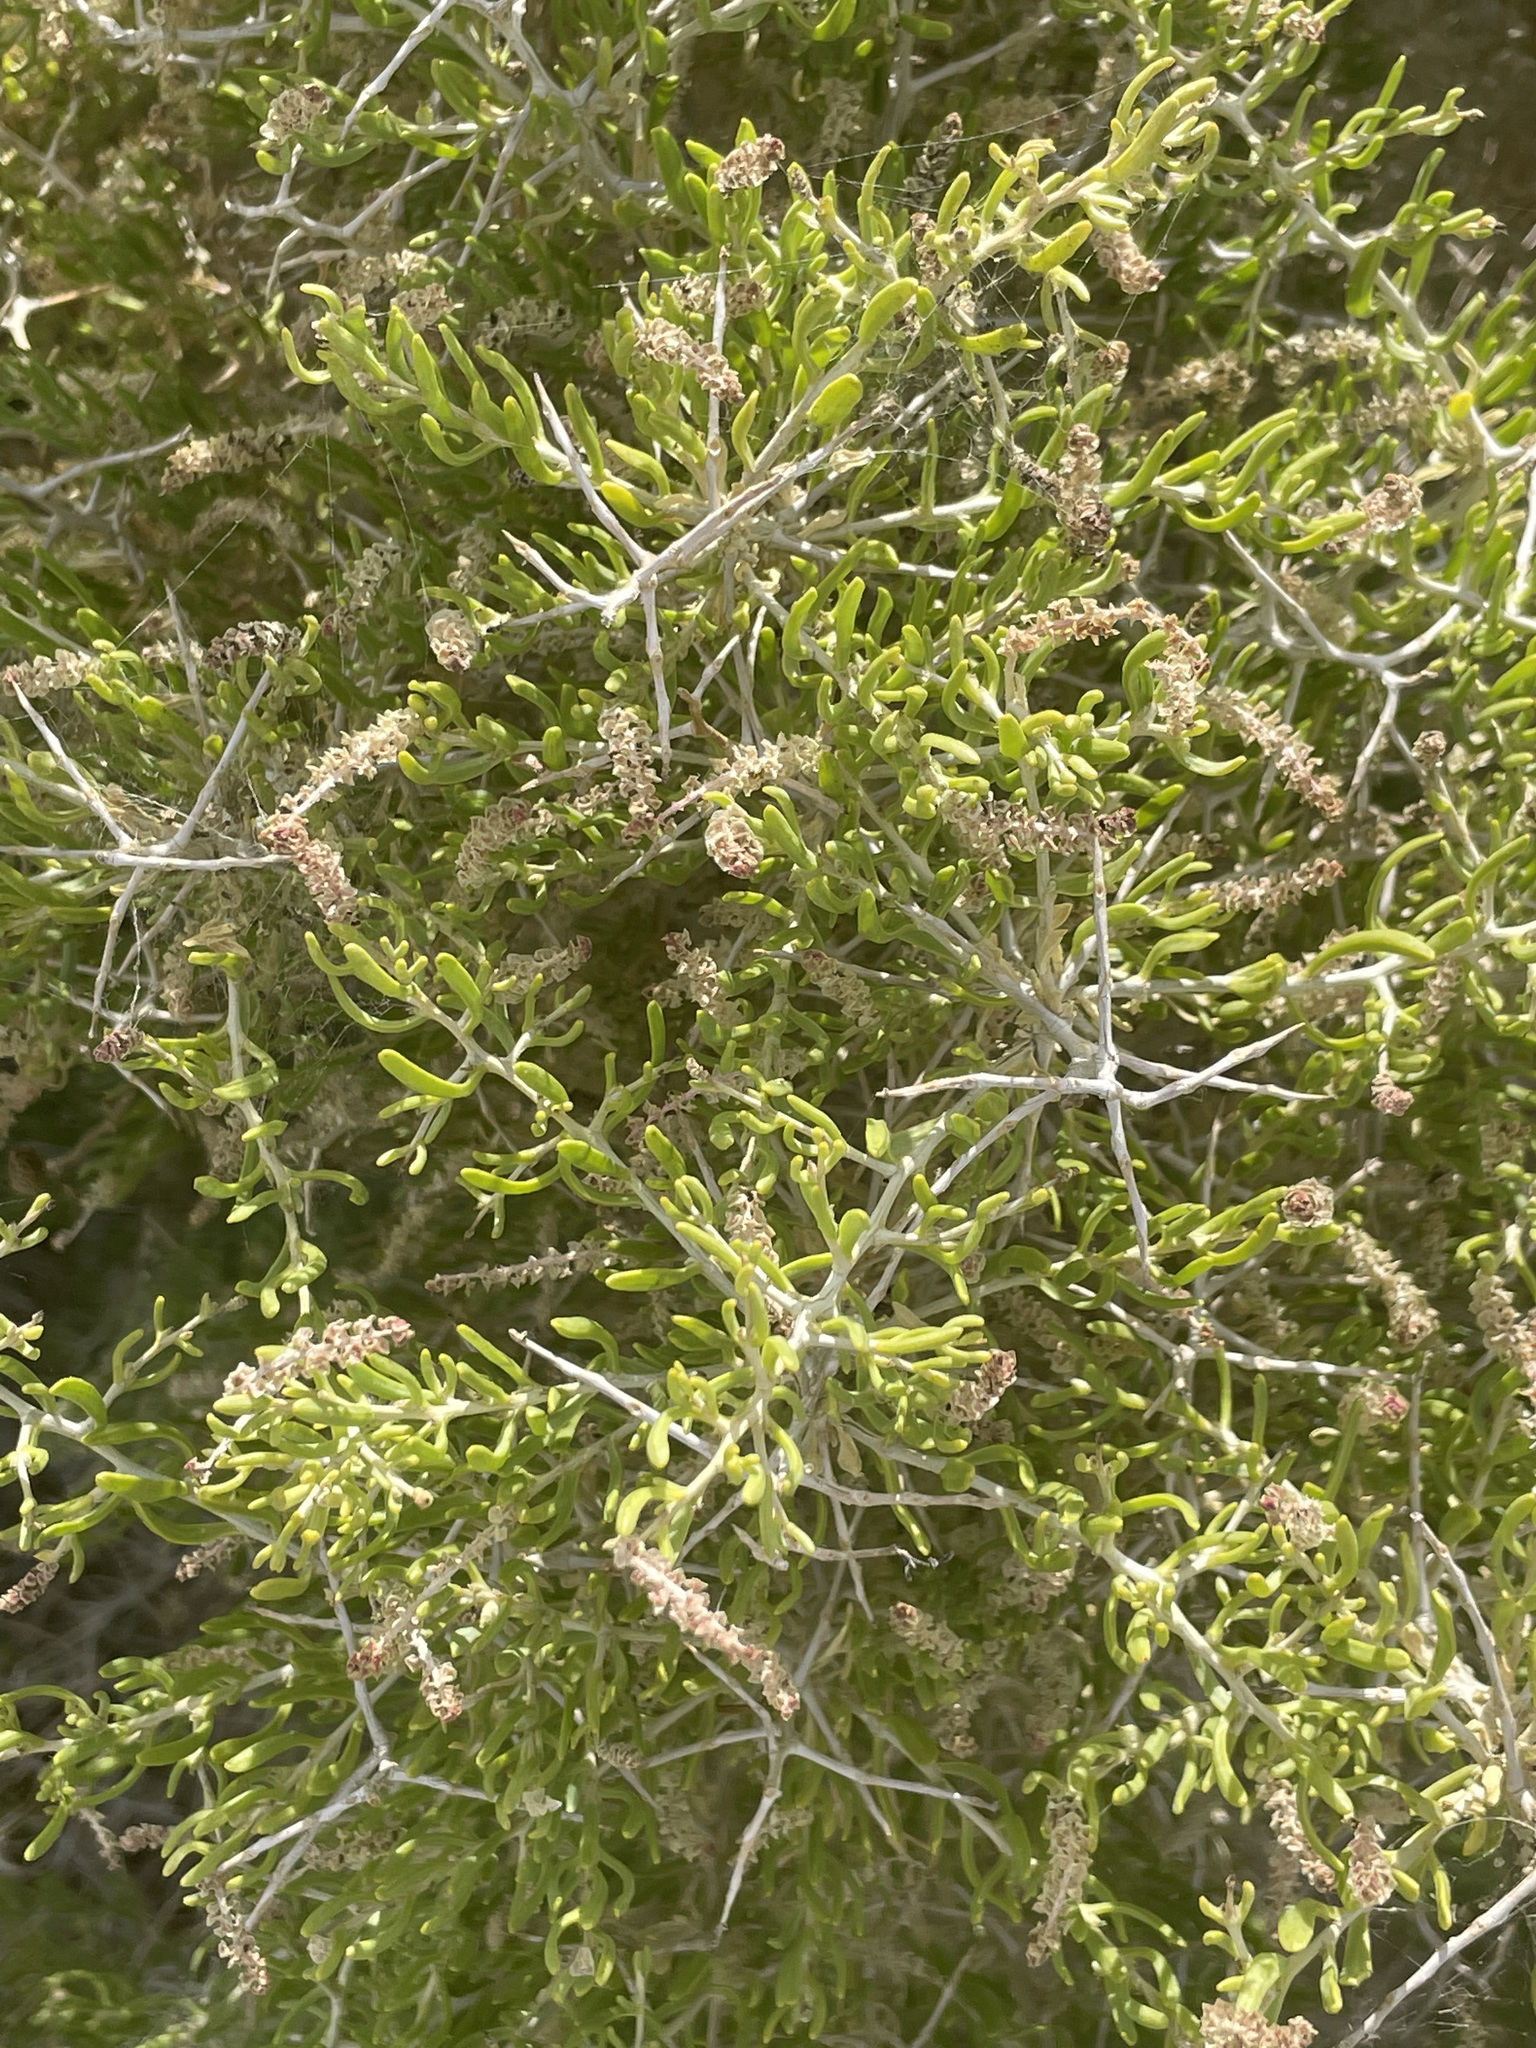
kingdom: Plantae
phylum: Tracheophyta
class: Magnoliopsida
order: Caryophyllales
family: Sarcobataceae
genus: Sarcobatus
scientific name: Sarcobatus vermiculatus
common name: Greasewood
